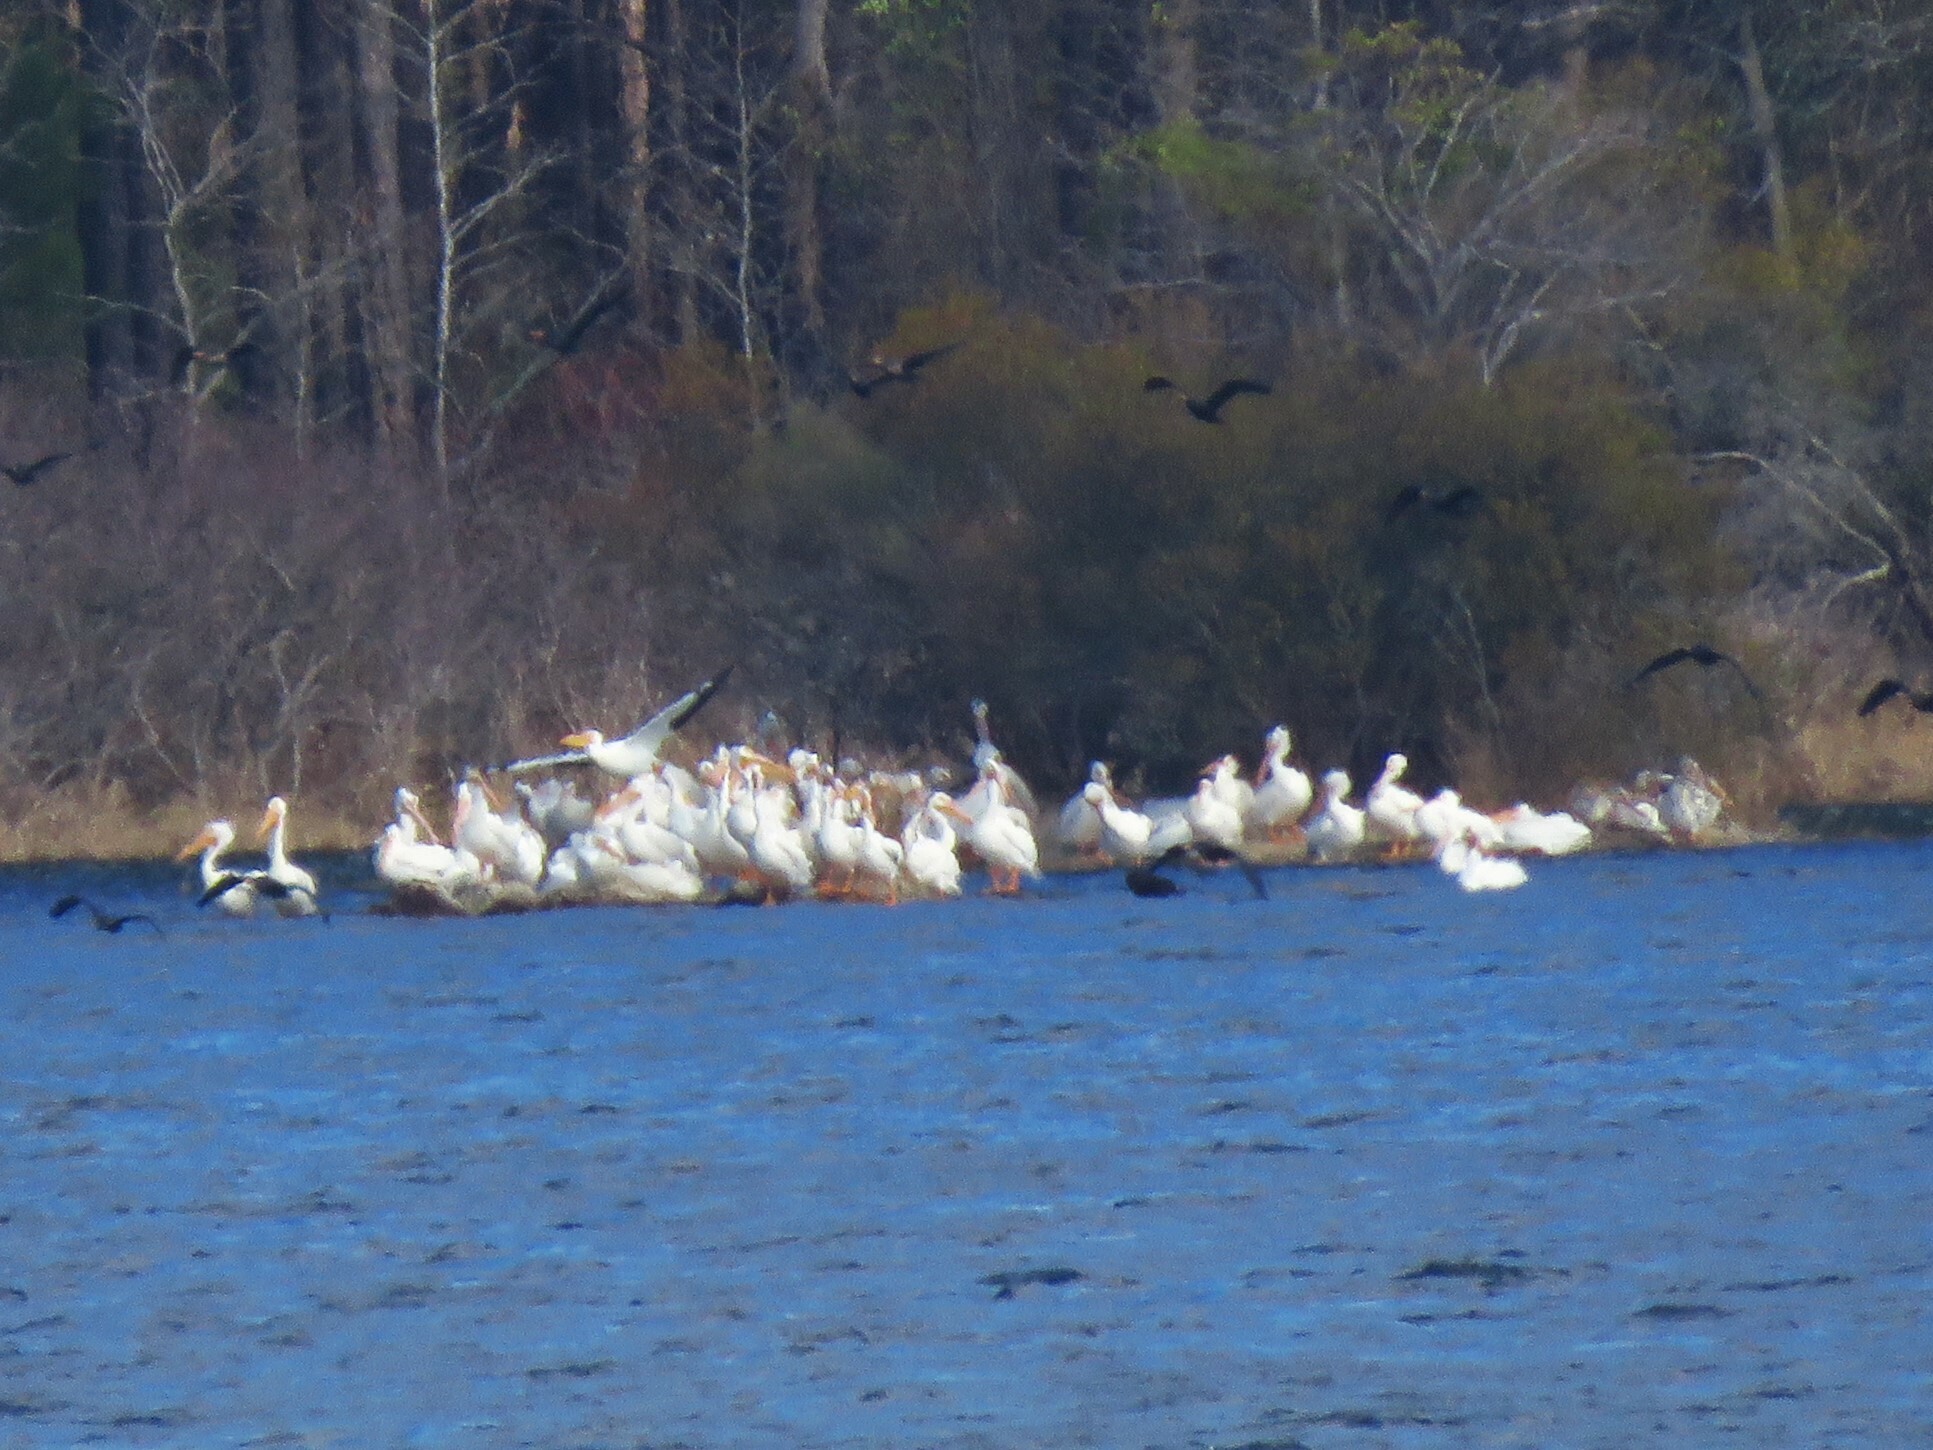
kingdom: Animalia
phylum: Chordata
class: Aves
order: Pelecaniformes
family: Pelecanidae
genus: Pelecanus
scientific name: Pelecanus erythrorhynchos
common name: American white pelican
